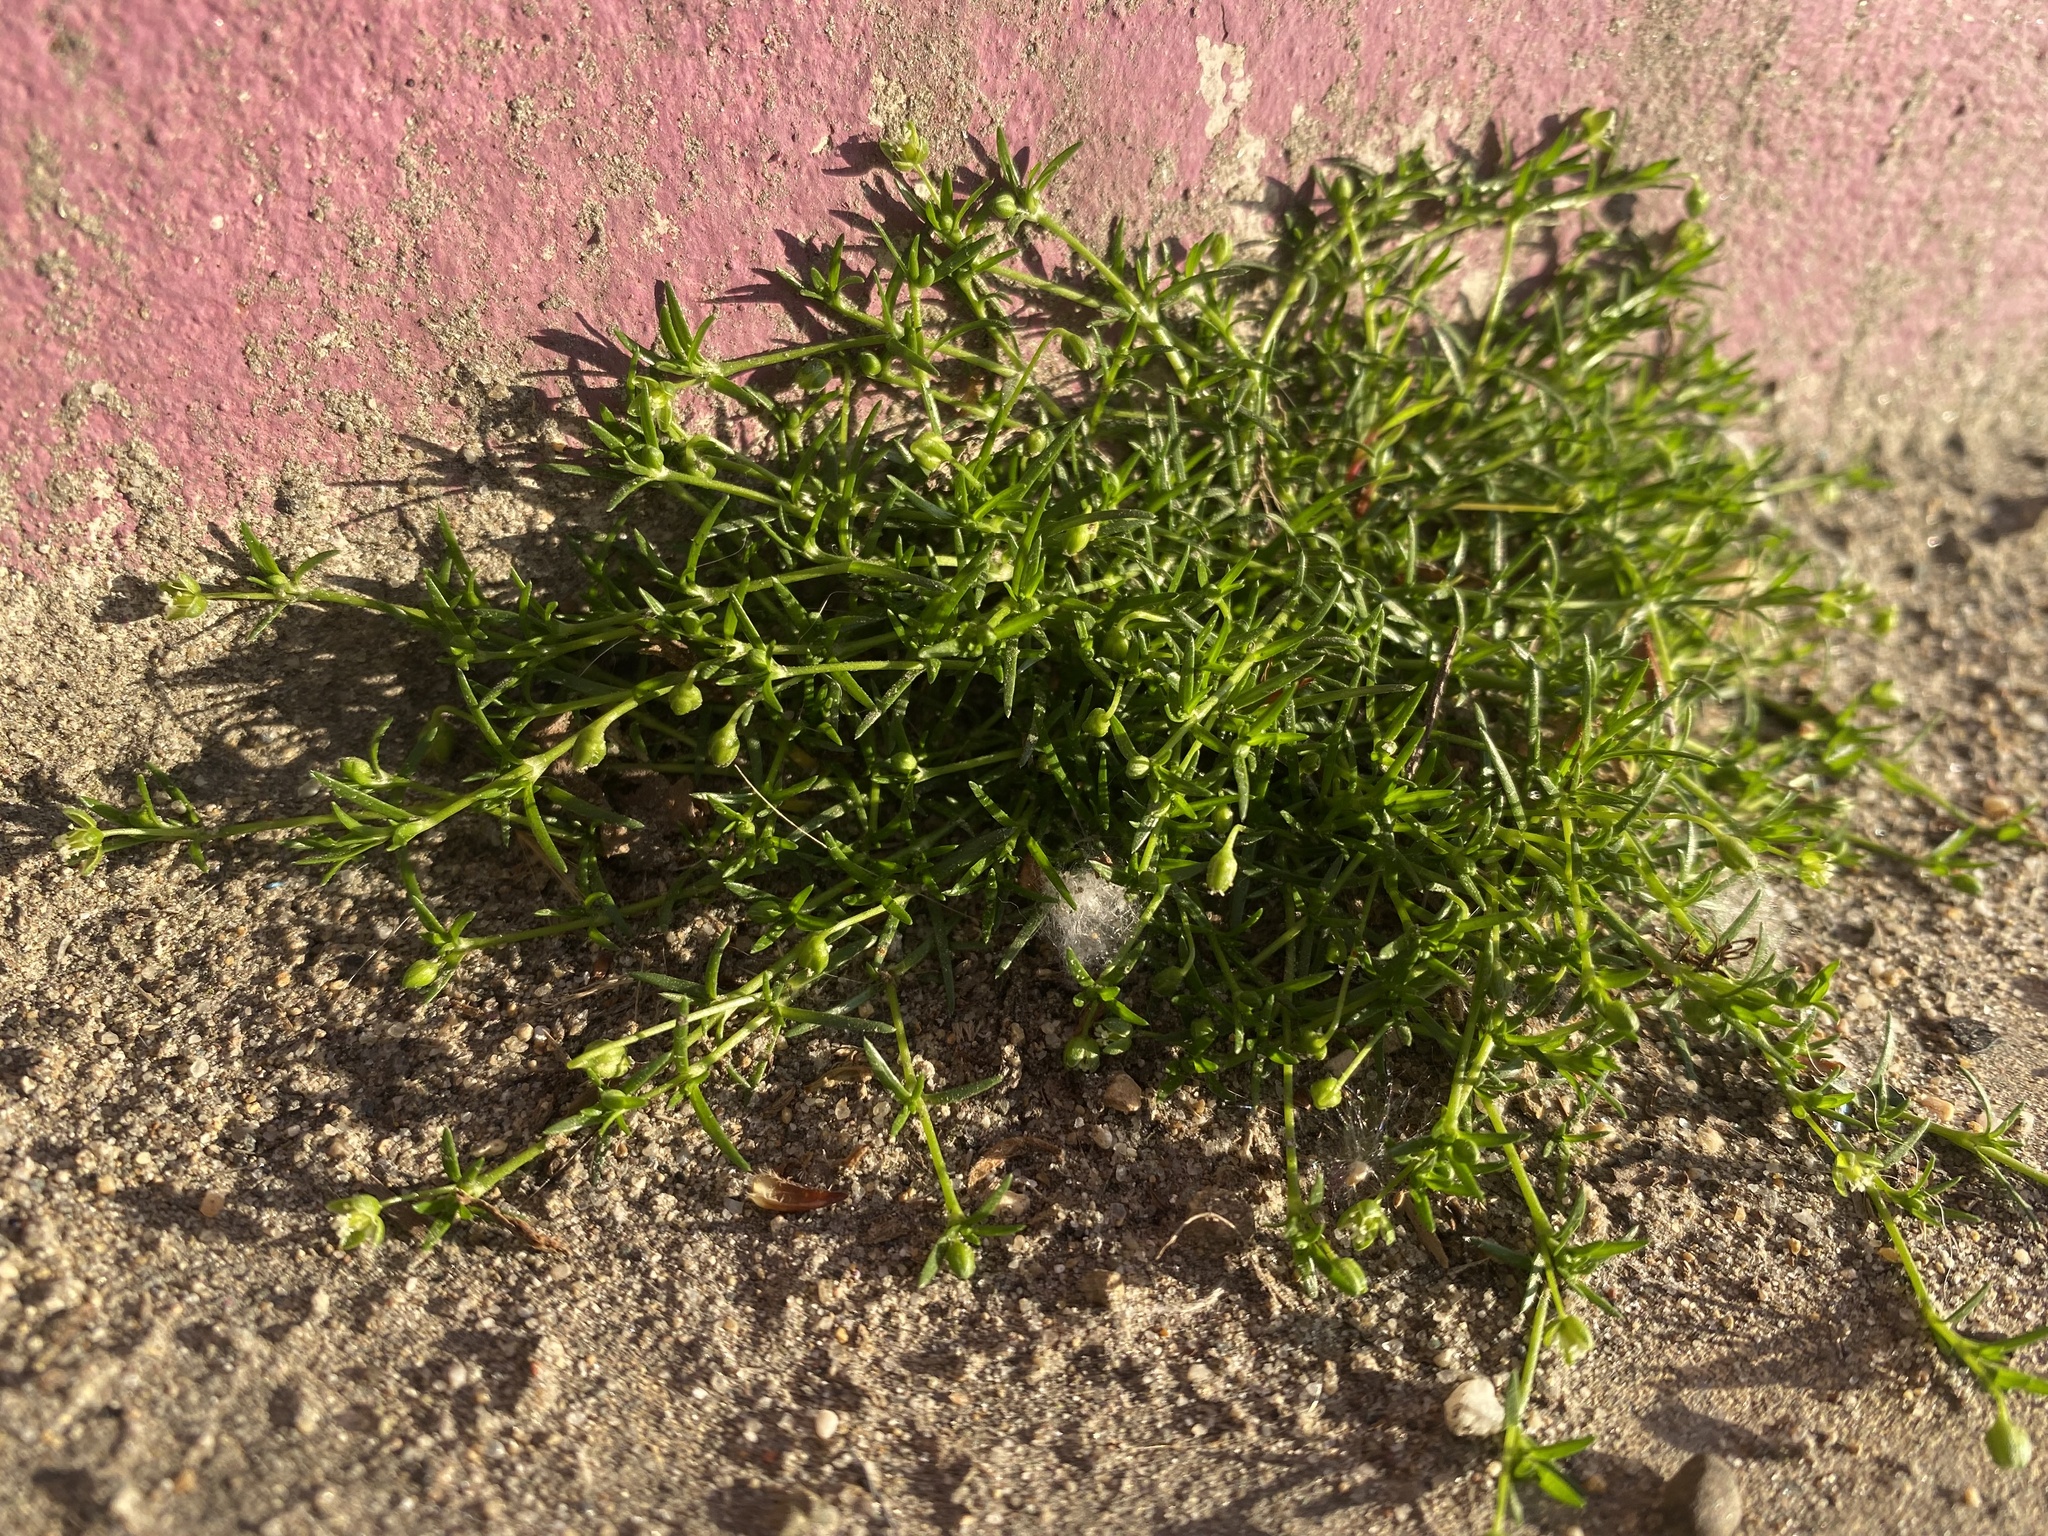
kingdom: Plantae
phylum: Tracheophyta
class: Magnoliopsida
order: Caryophyllales
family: Caryophyllaceae
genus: Sagina
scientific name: Sagina procumbens
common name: Procumbent pearlwort
